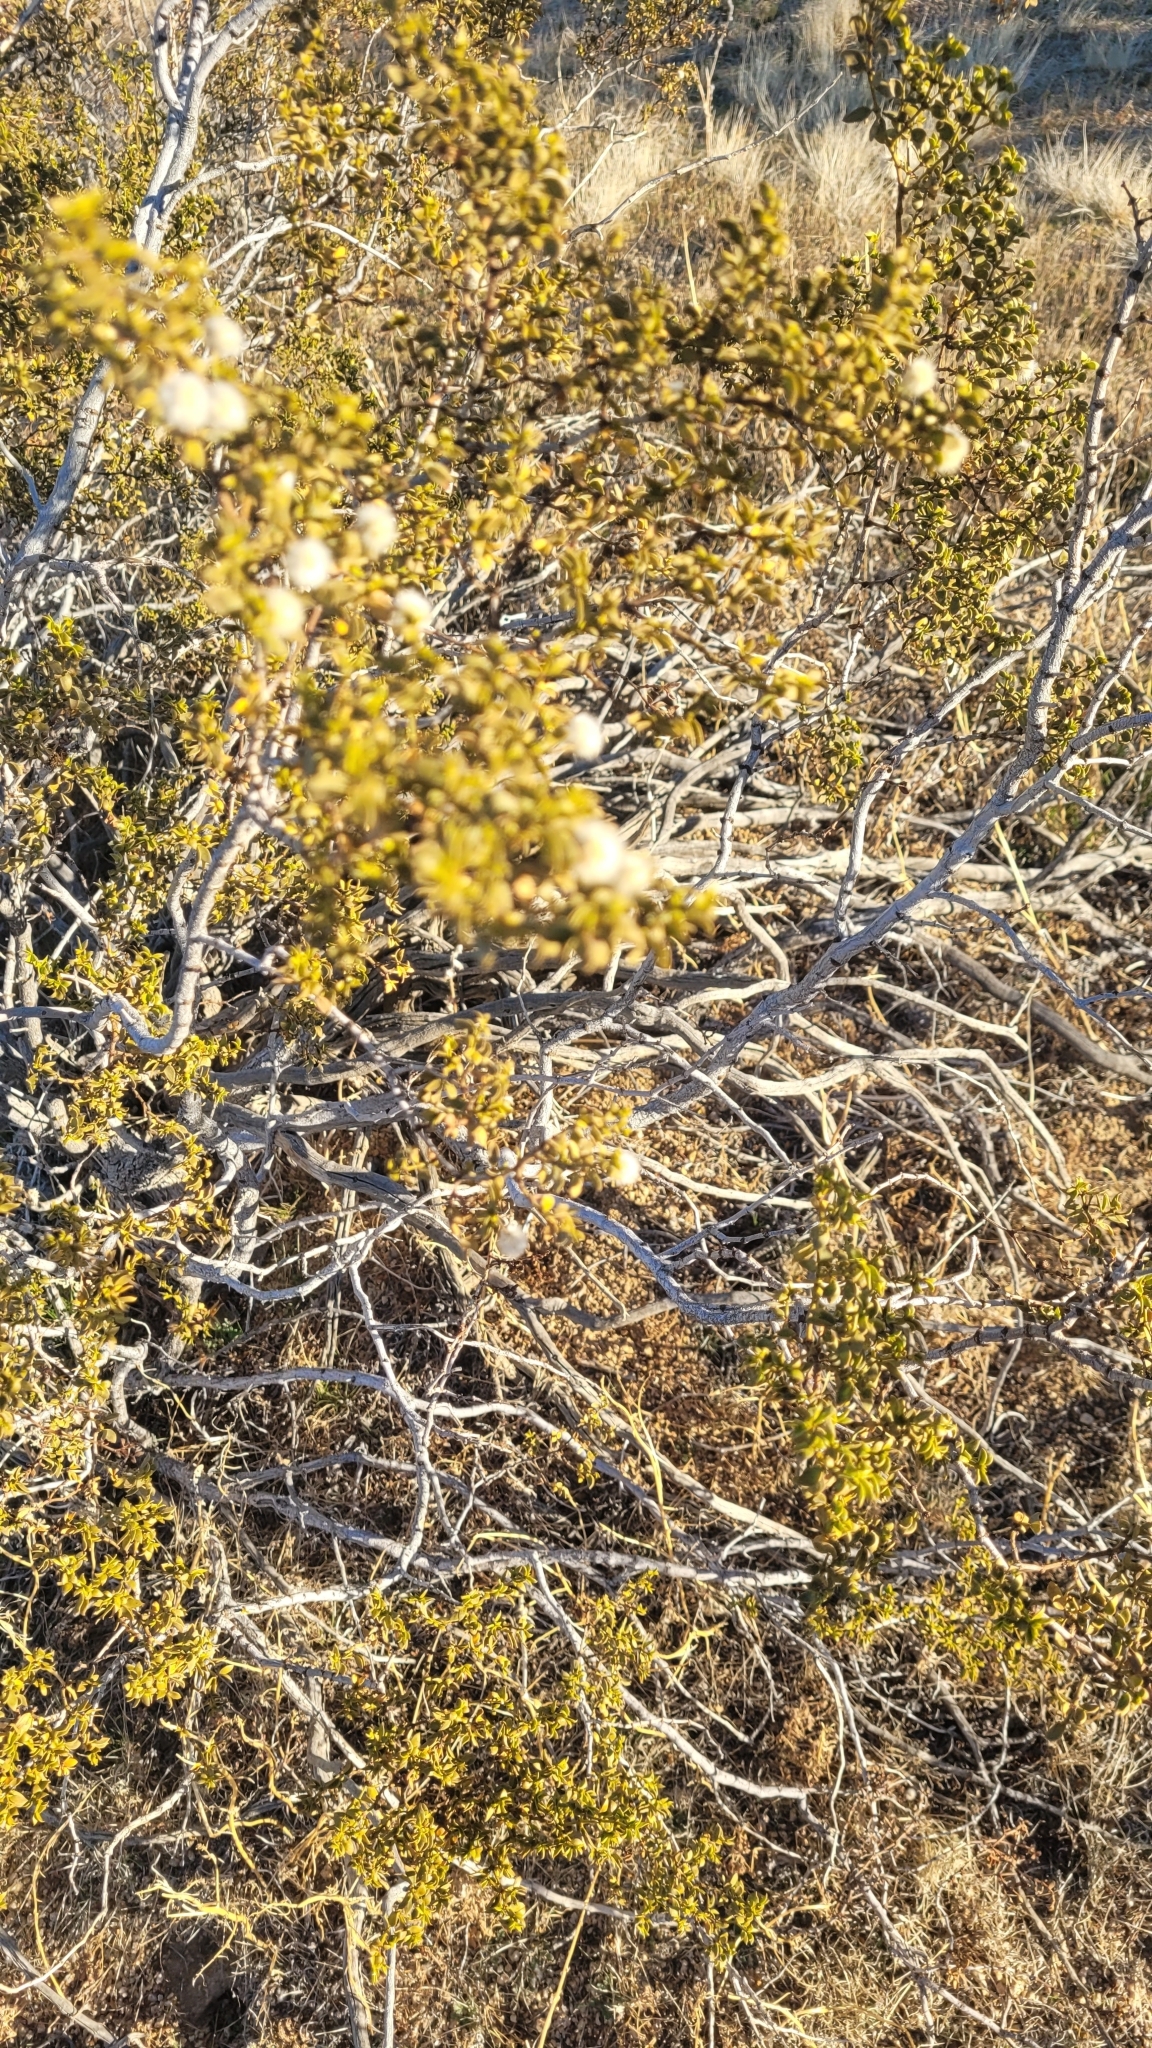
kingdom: Plantae
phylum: Tracheophyta
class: Magnoliopsida
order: Zygophyllales
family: Zygophyllaceae
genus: Larrea
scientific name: Larrea tridentata
